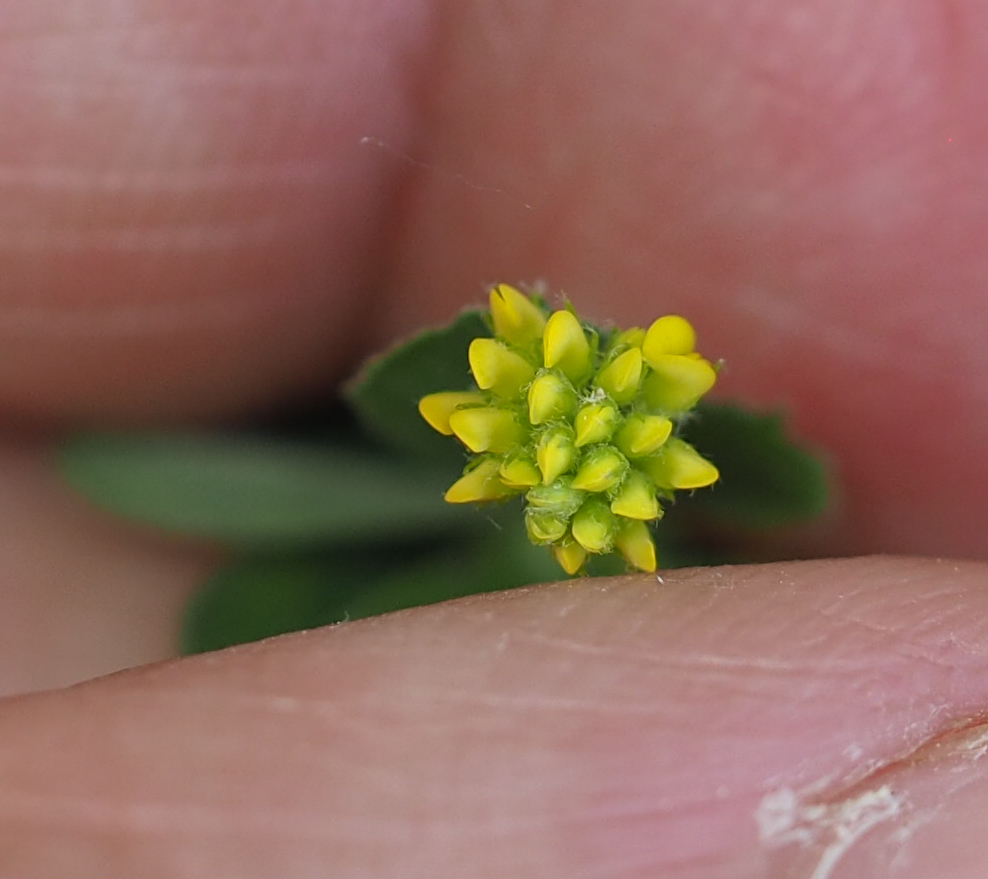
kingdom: Plantae
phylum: Tracheophyta
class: Magnoliopsida
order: Fabales
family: Fabaceae
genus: Medicago
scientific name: Medicago lupulina
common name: Black medick
